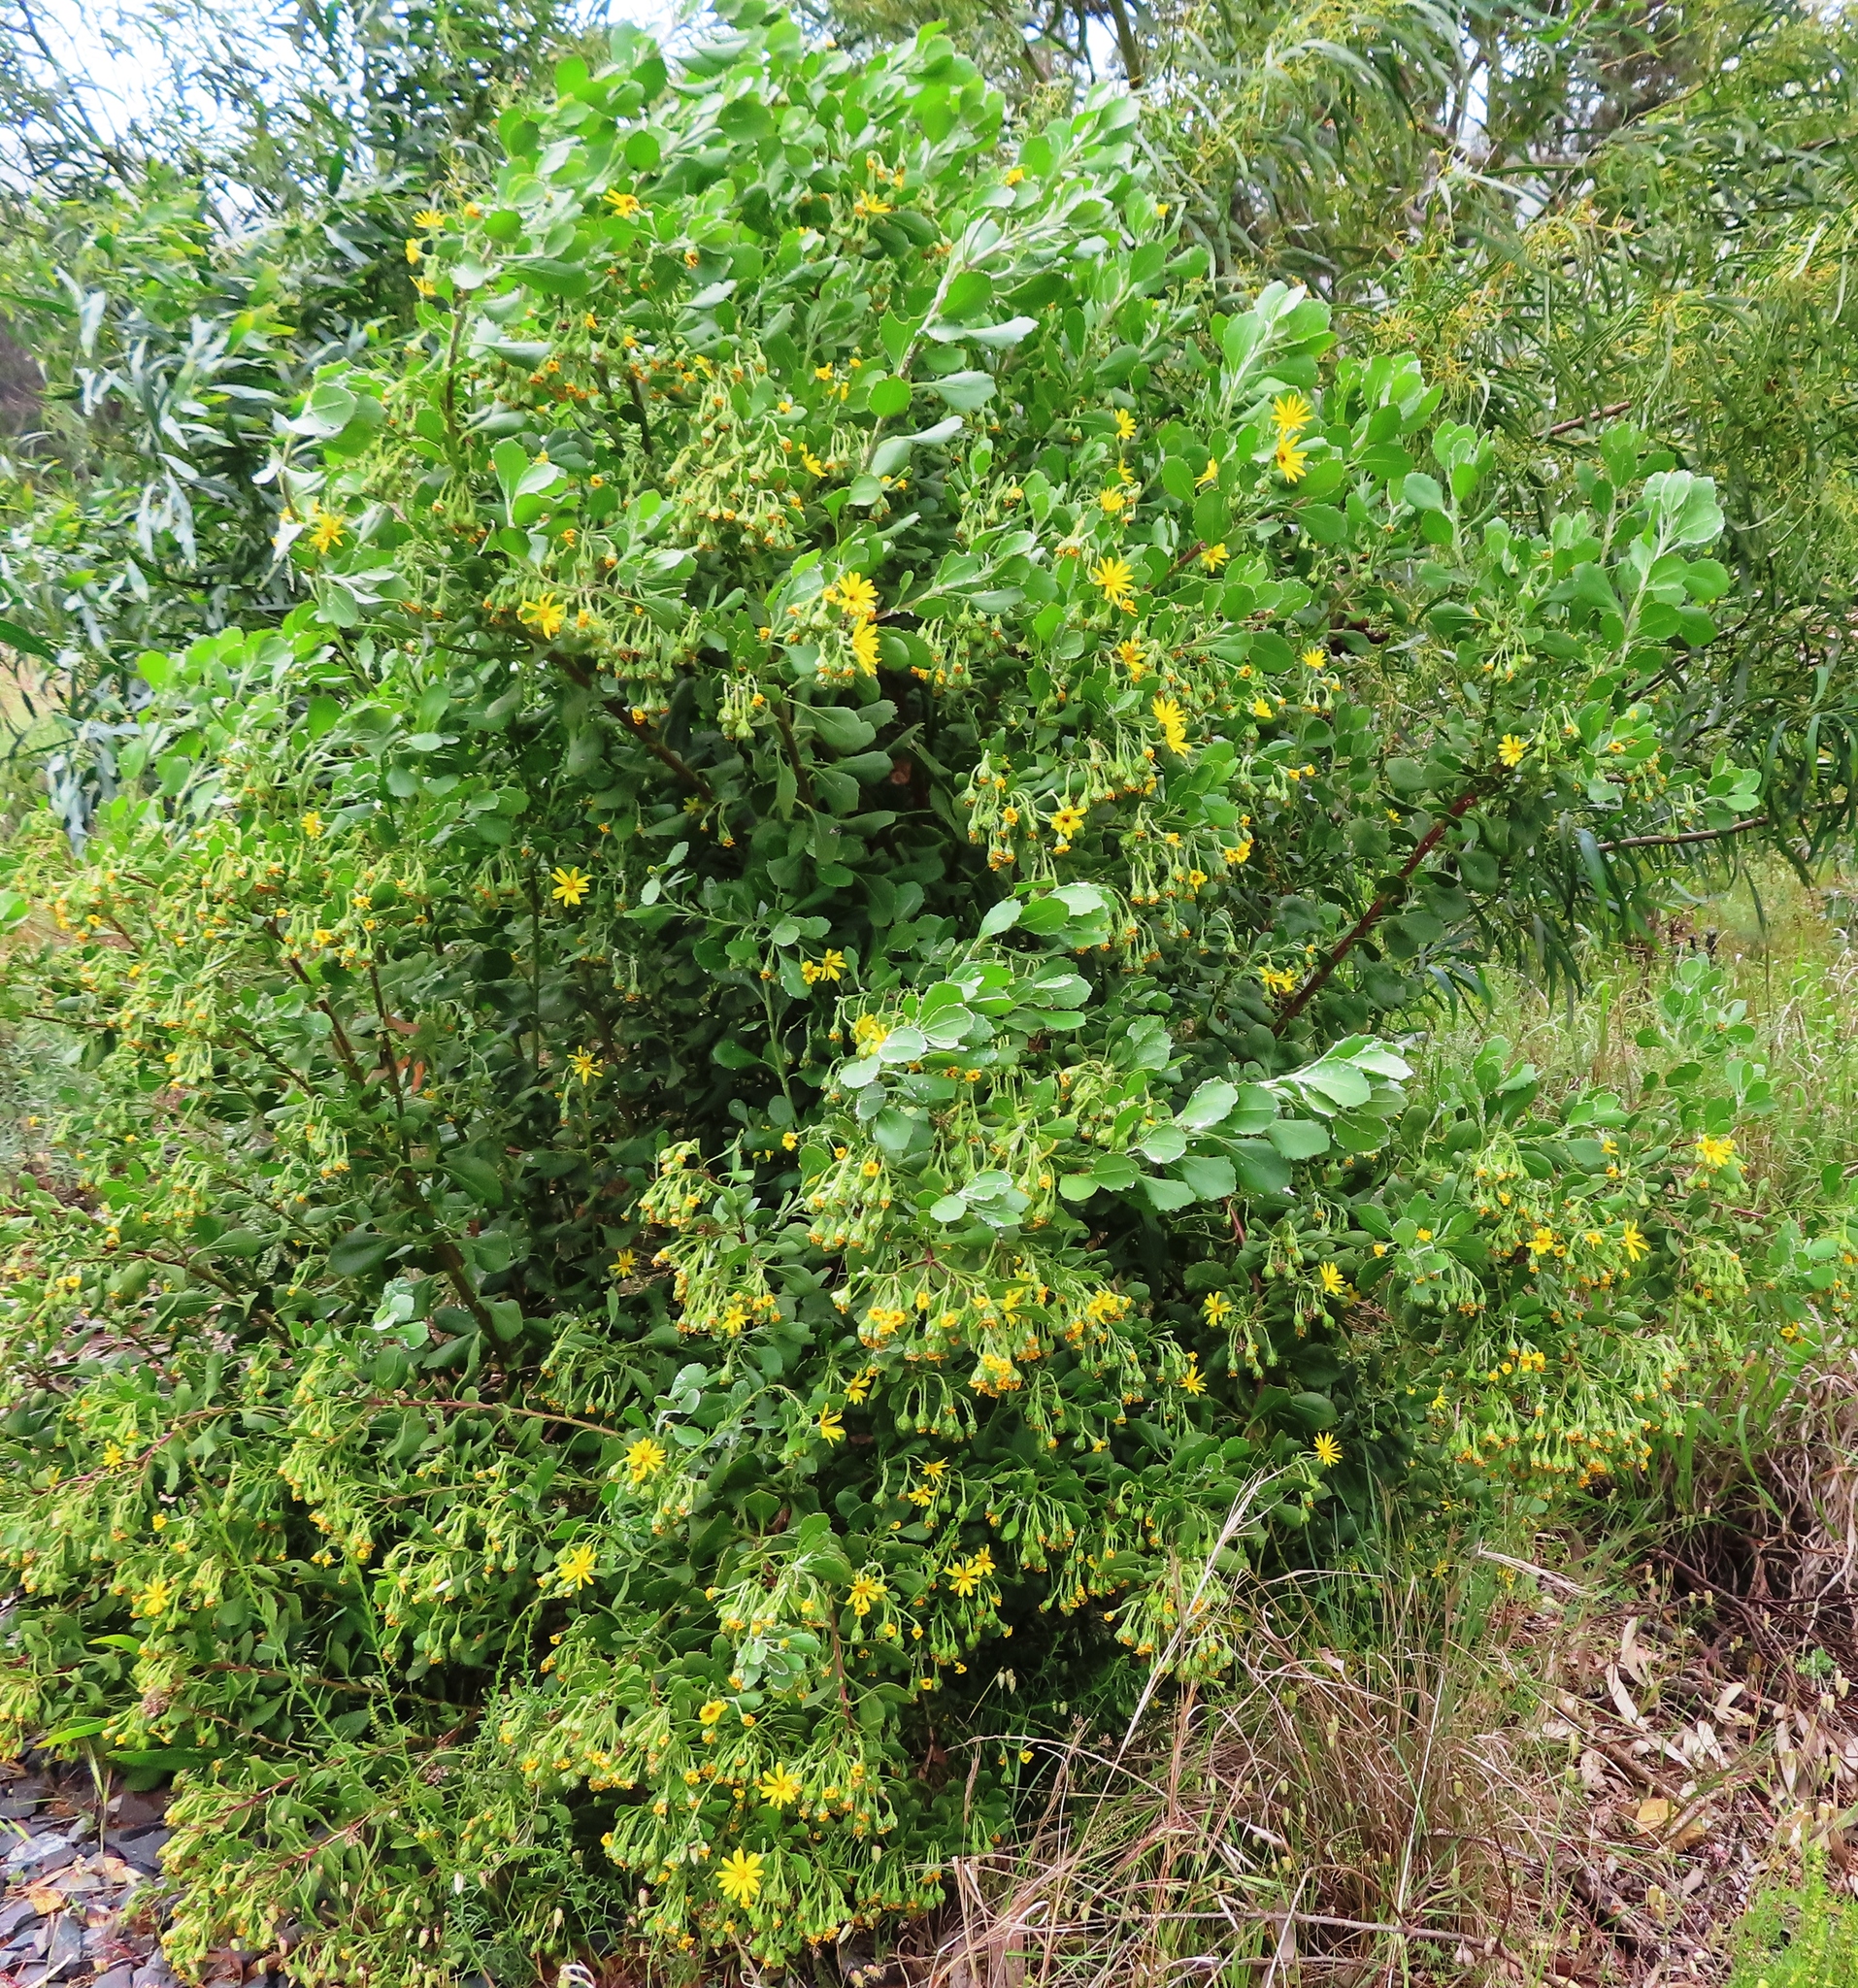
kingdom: Plantae
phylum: Tracheophyta
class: Magnoliopsida
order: Asterales
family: Asteraceae
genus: Osteospermum
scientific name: Osteospermum moniliferum
